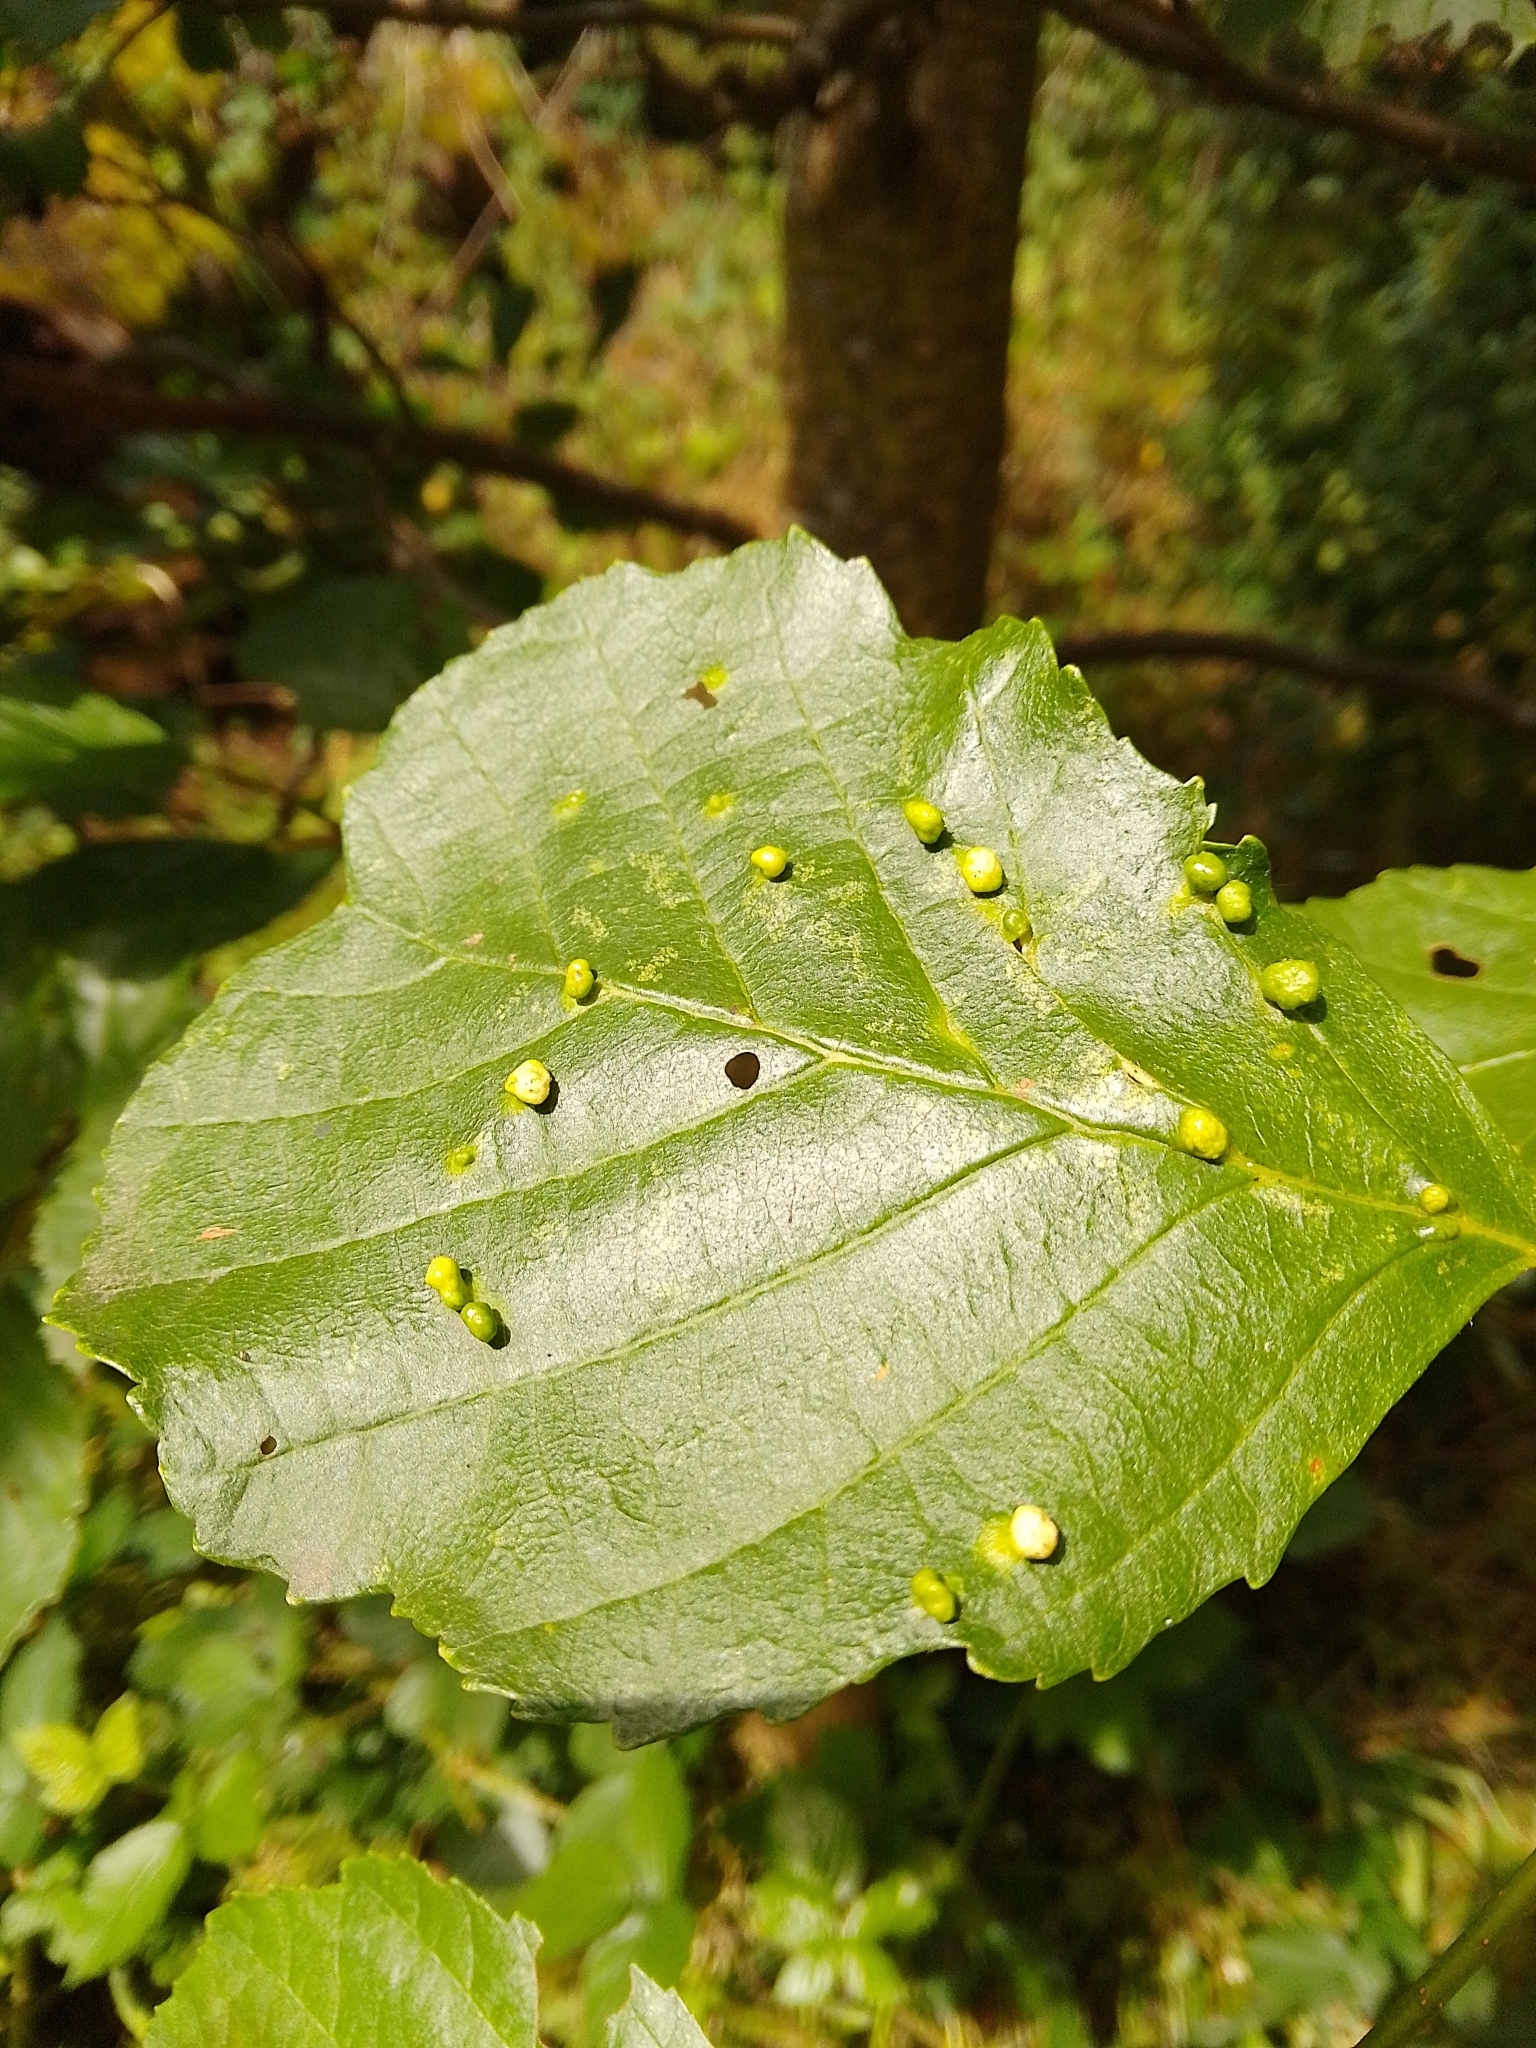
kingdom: Animalia
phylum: Arthropoda
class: Arachnida
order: Trombidiformes
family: Eriophyidae
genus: Eriophyes
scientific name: Eriophyes laevis
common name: Alder leaf gall mite
